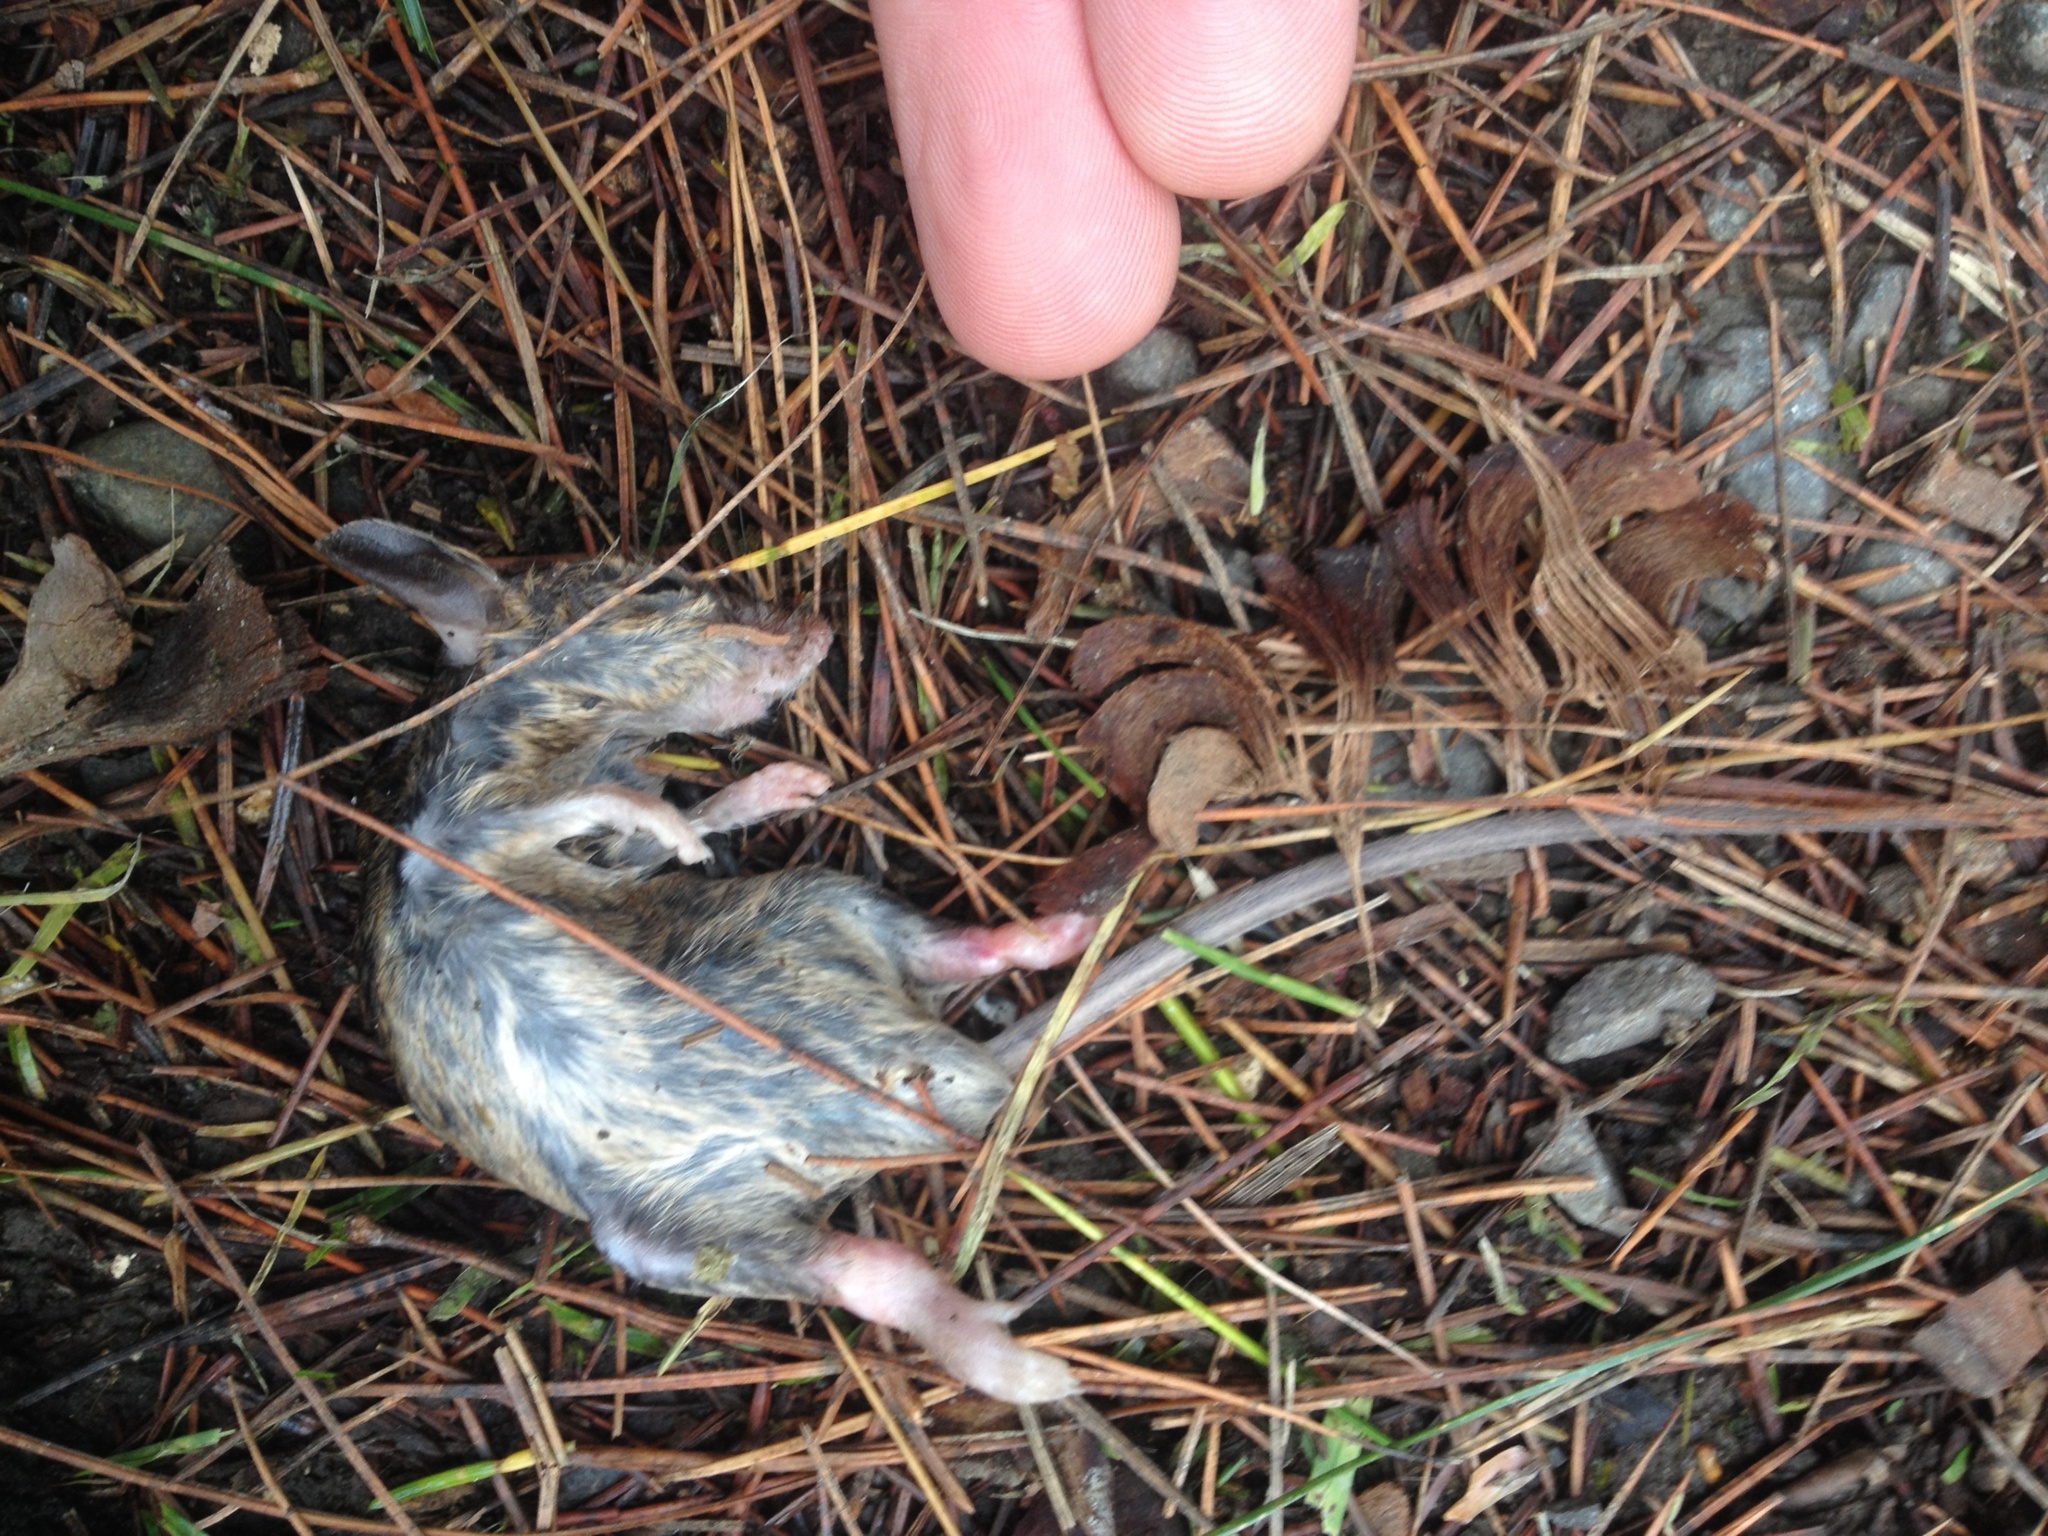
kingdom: Animalia
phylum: Chordata
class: Mammalia
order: Rodentia
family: Muridae
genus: Mus
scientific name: Mus musculus
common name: House mouse
